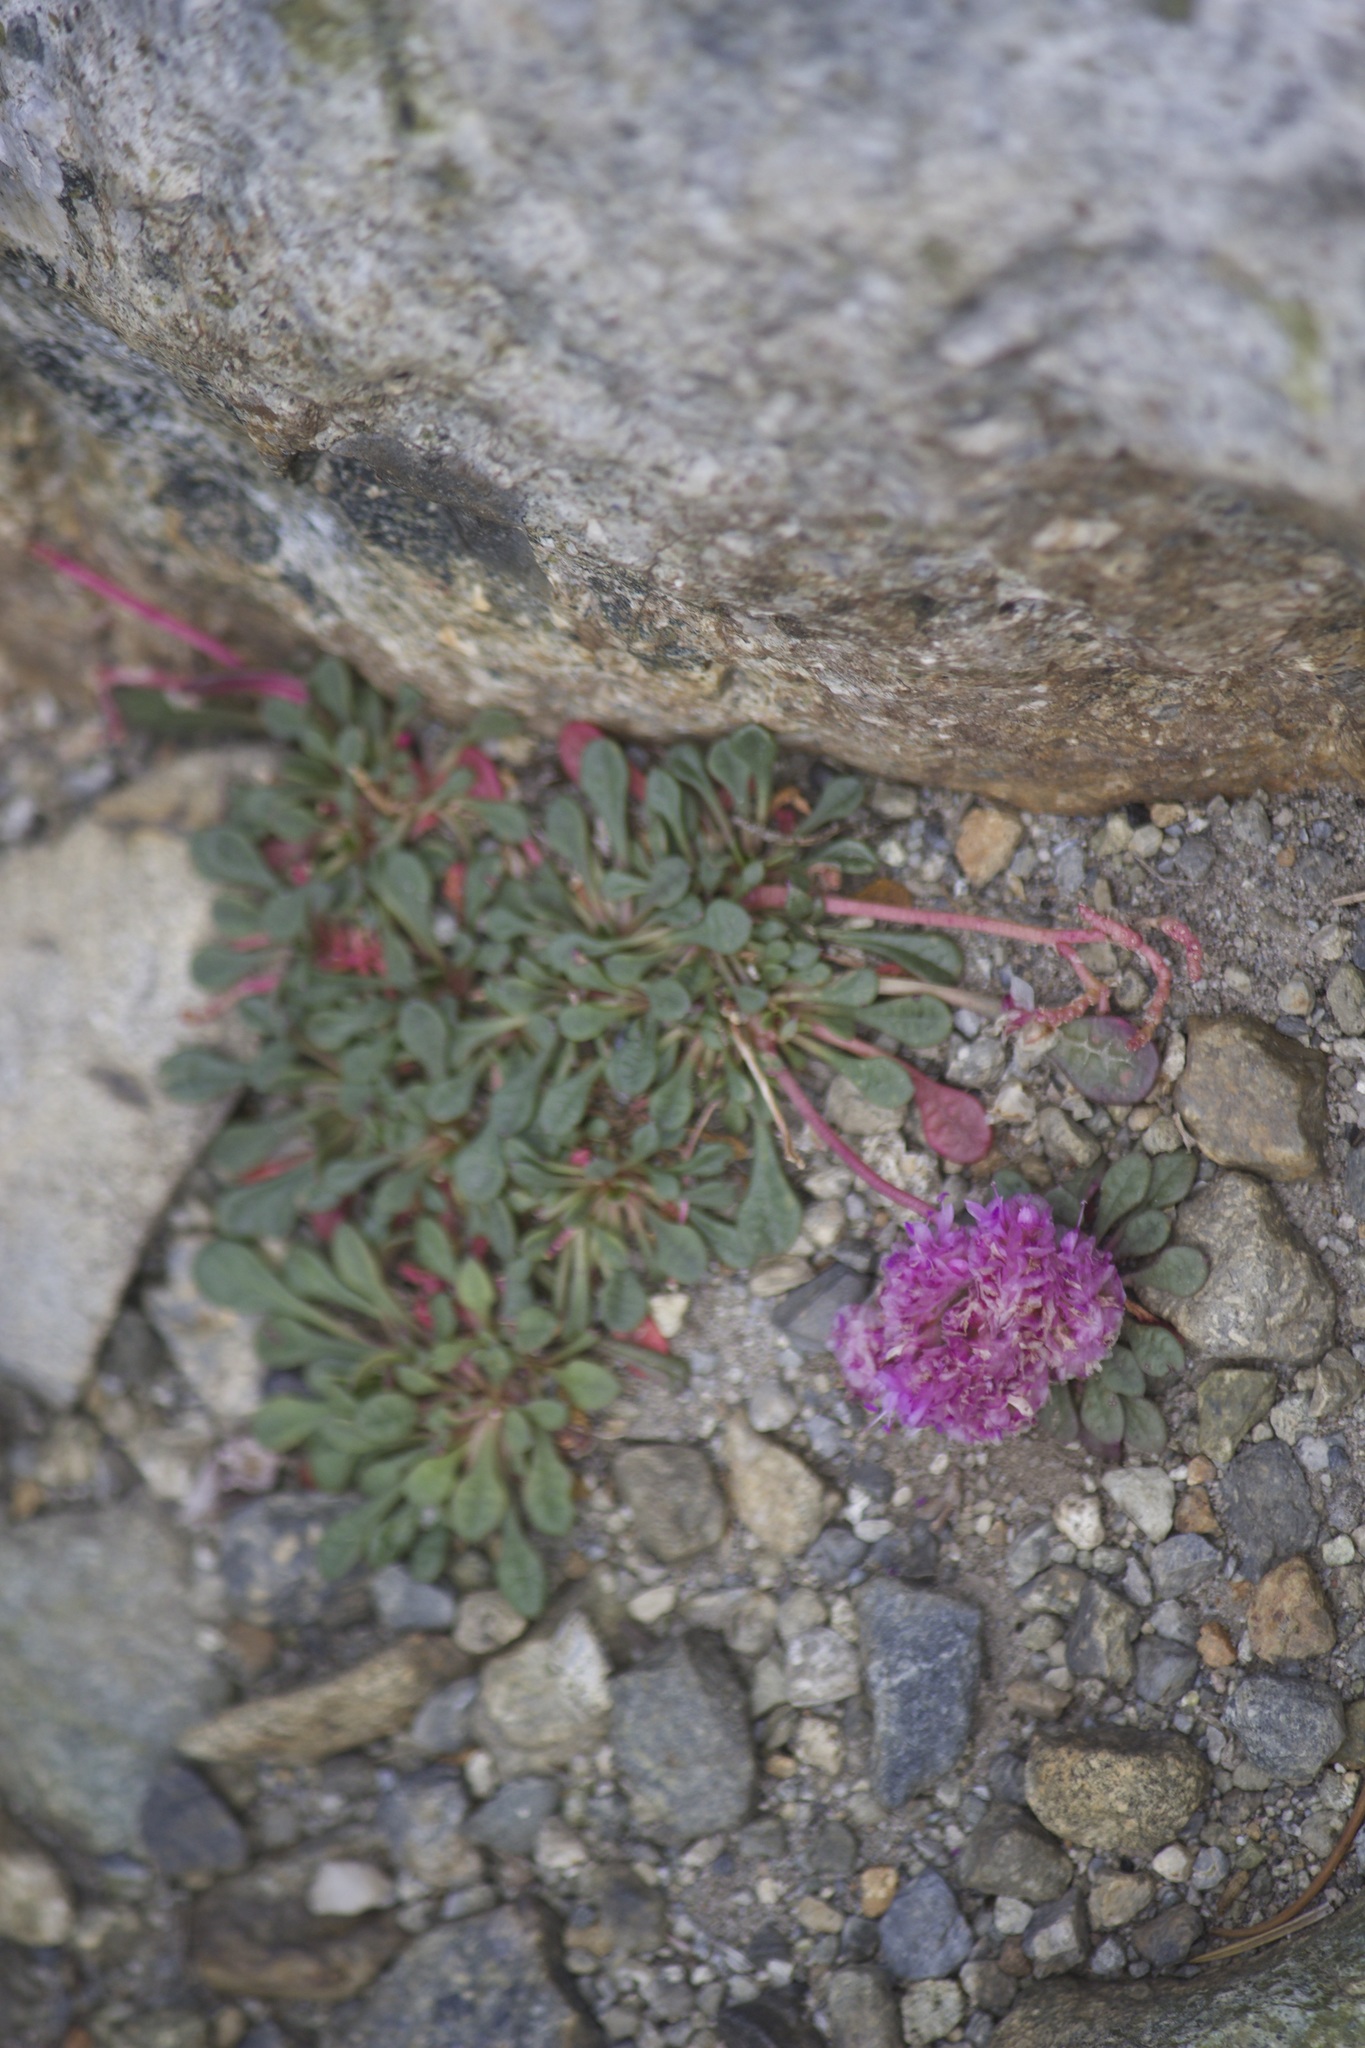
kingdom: Plantae
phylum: Tracheophyta
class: Magnoliopsida
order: Caryophyllales
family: Montiaceae
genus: Calyptridium
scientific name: Calyptridium umbellatum
